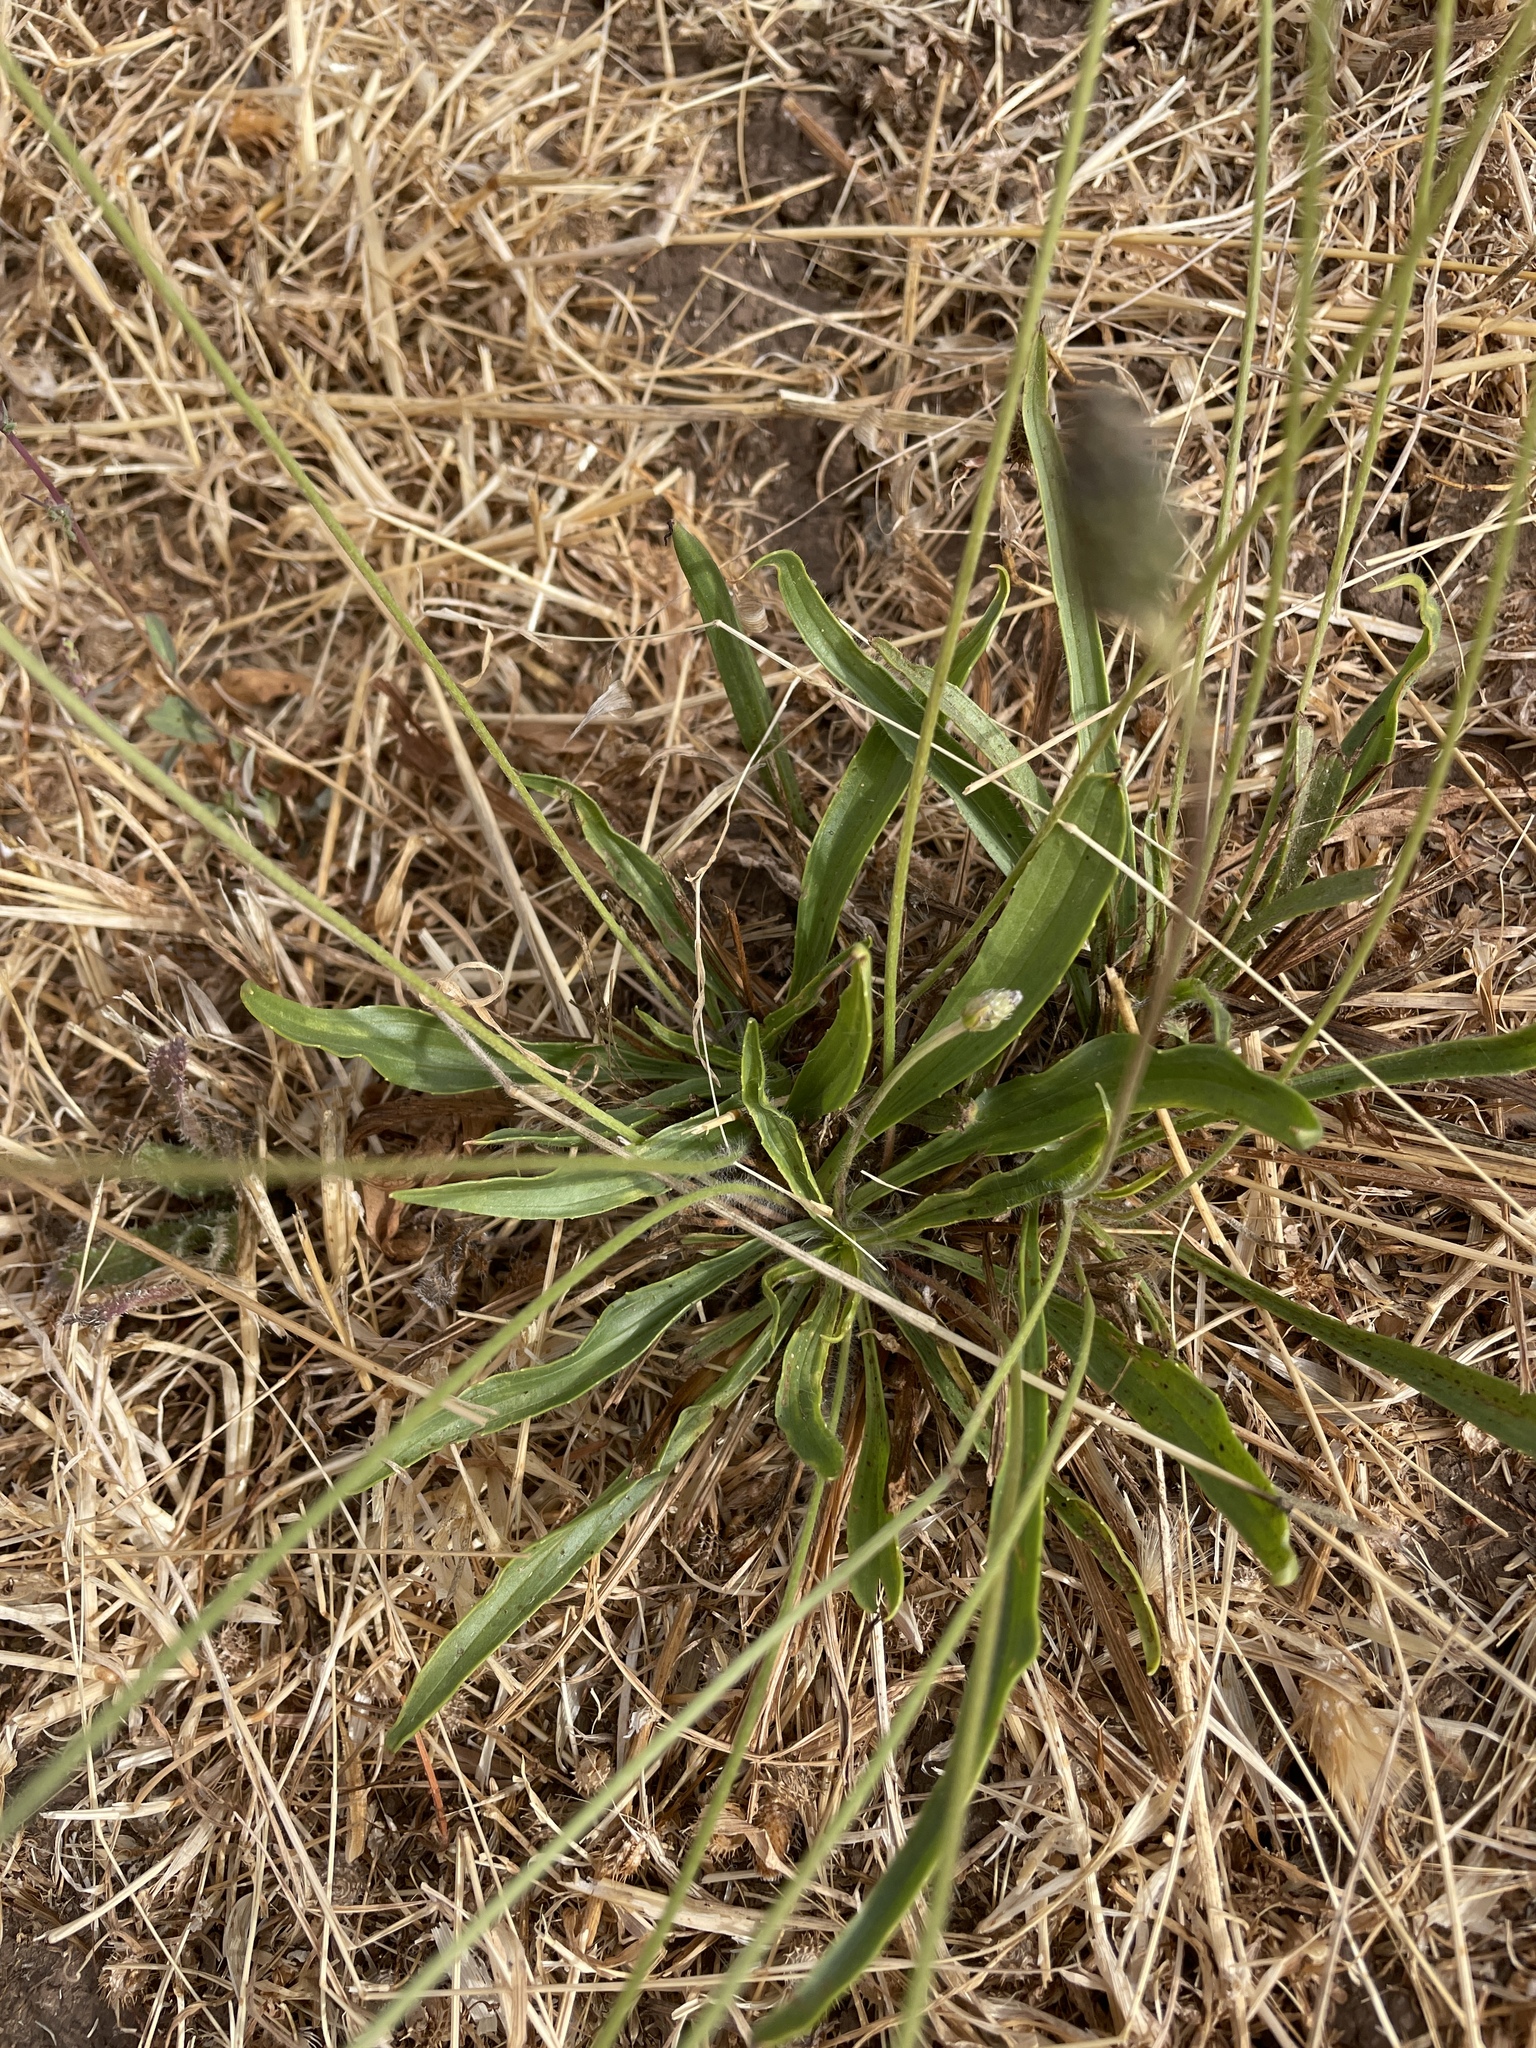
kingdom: Plantae
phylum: Tracheophyta
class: Magnoliopsida
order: Lamiales
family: Plantaginaceae
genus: Plantago
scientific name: Plantago lanceolata
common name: Ribwort plantain
